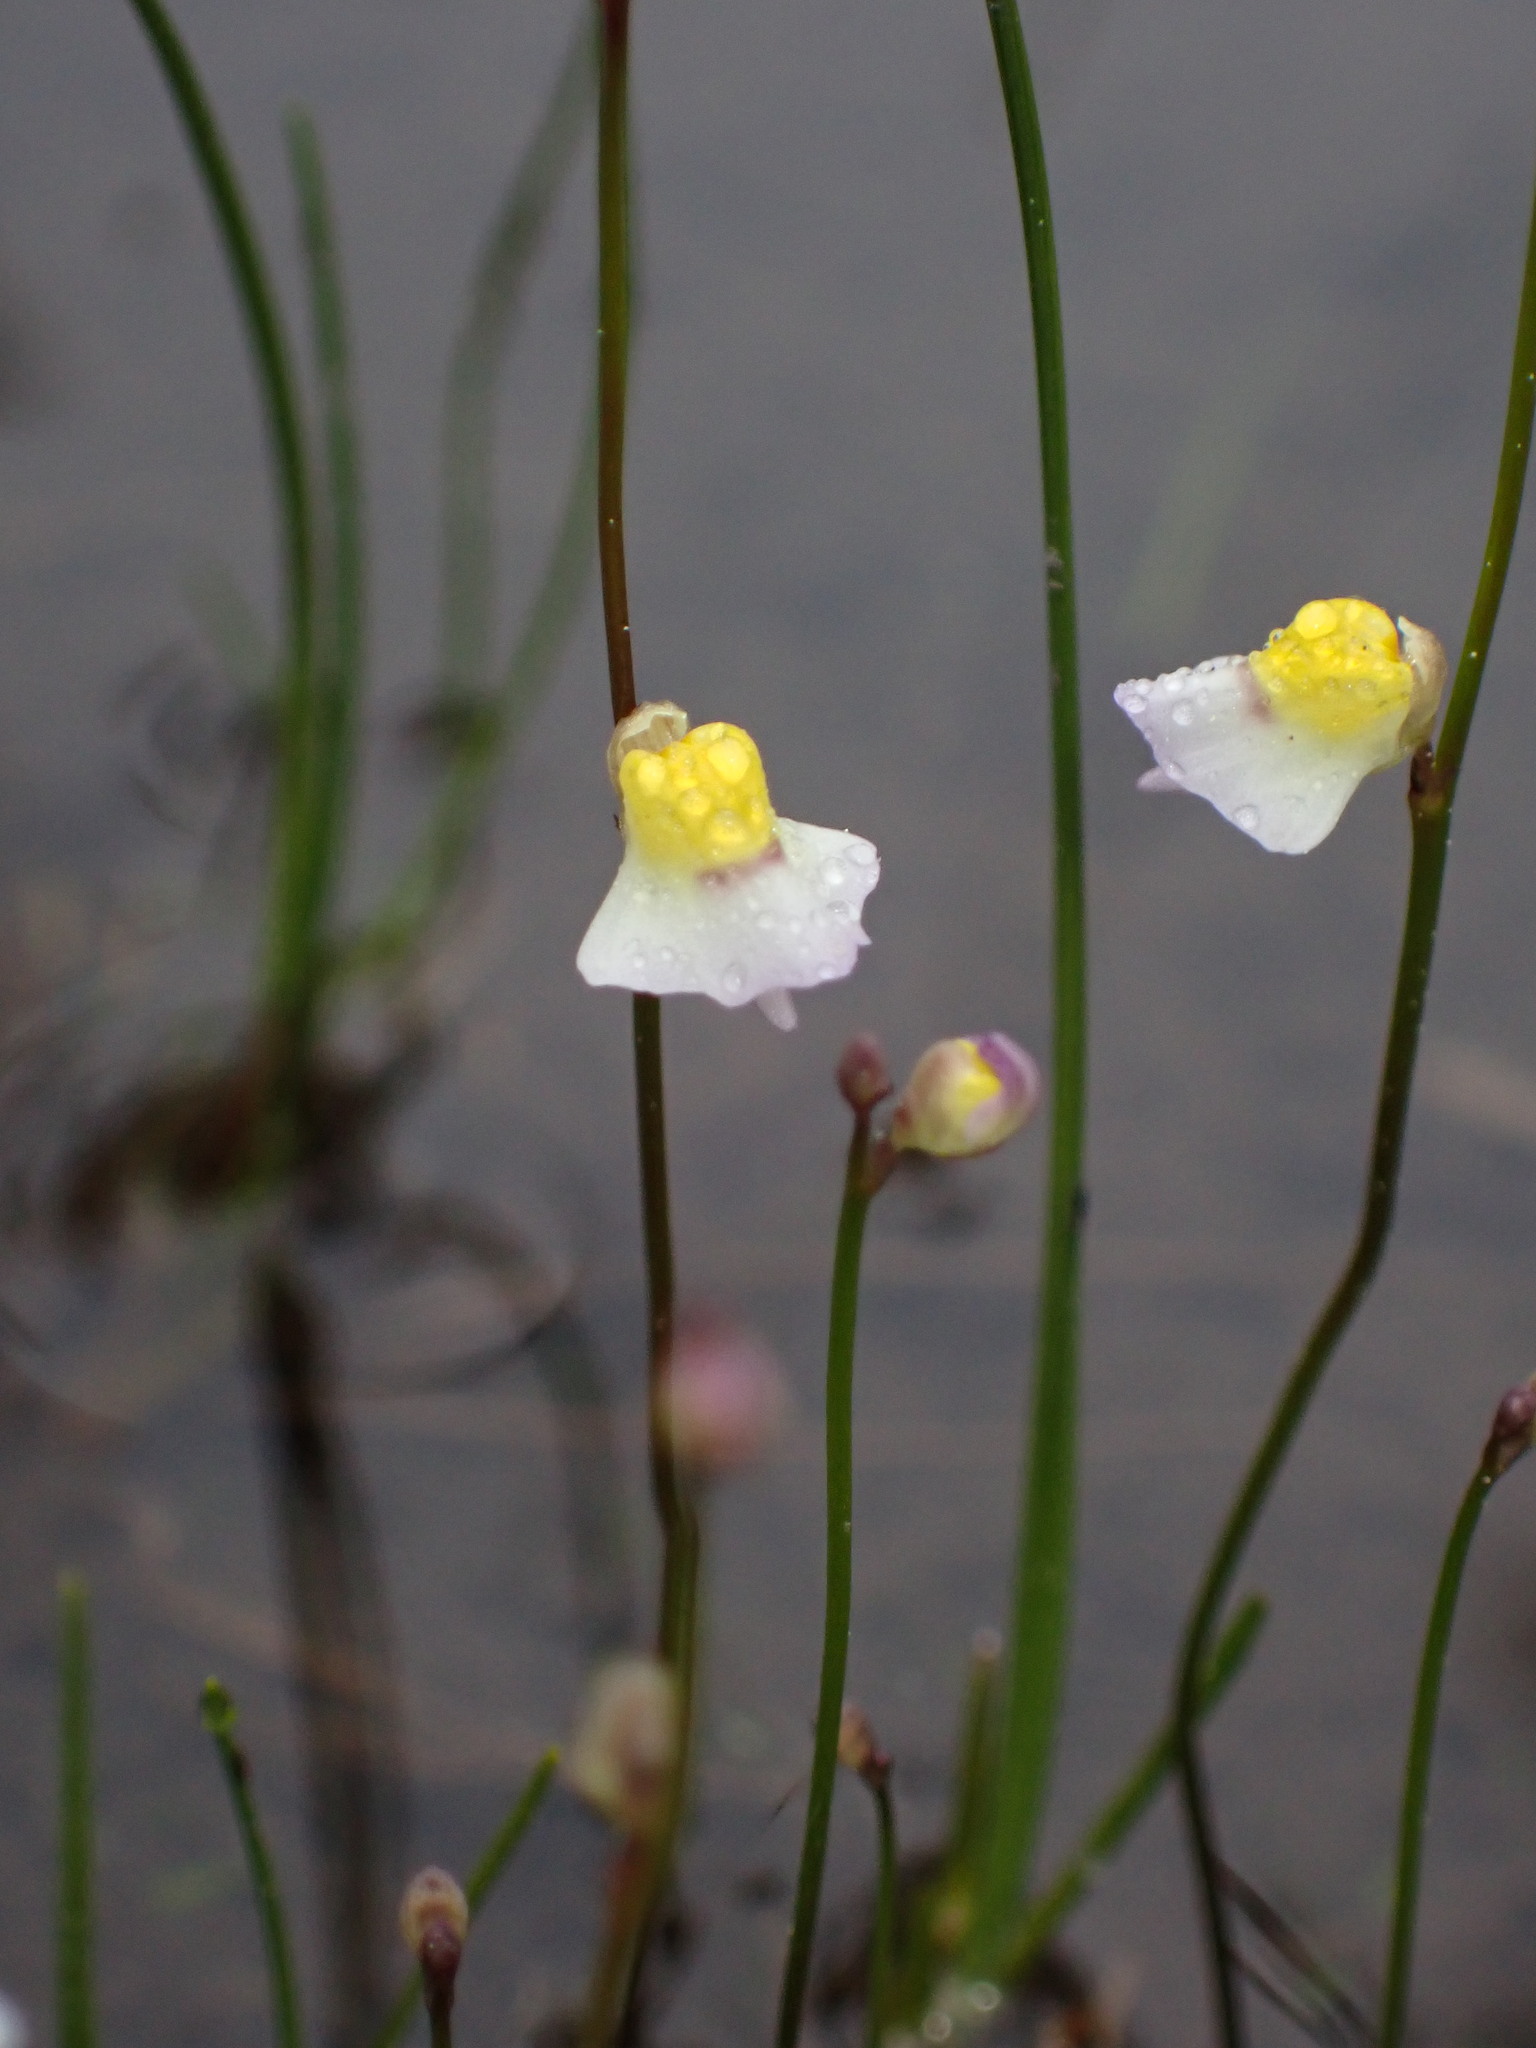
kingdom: Plantae
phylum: Tracheophyta
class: Magnoliopsida
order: Lamiales
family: Lentibulariaceae
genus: Utricularia
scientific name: Utricularia bisquamata
